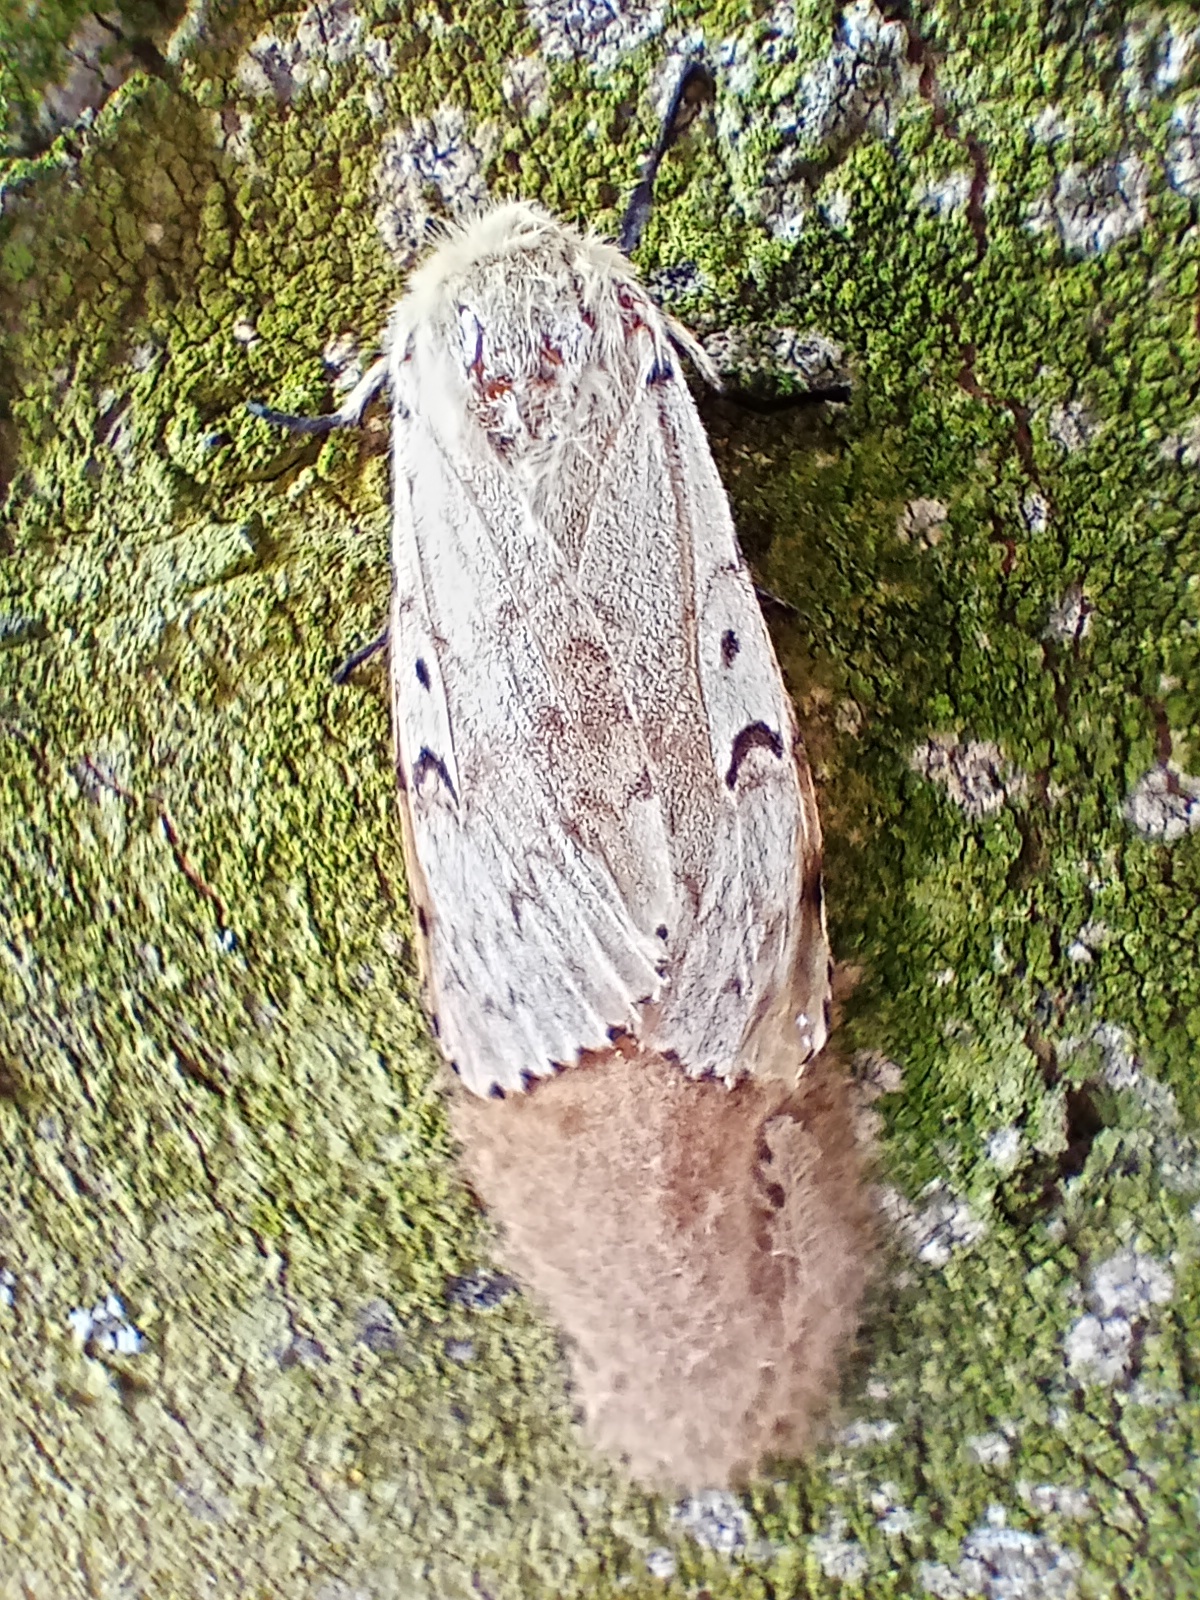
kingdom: Animalia
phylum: Arthropoda
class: Insecta
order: Lepidoptera
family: Erebidae
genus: Lymantria
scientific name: Lymantria dispar
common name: Gypsy moth
